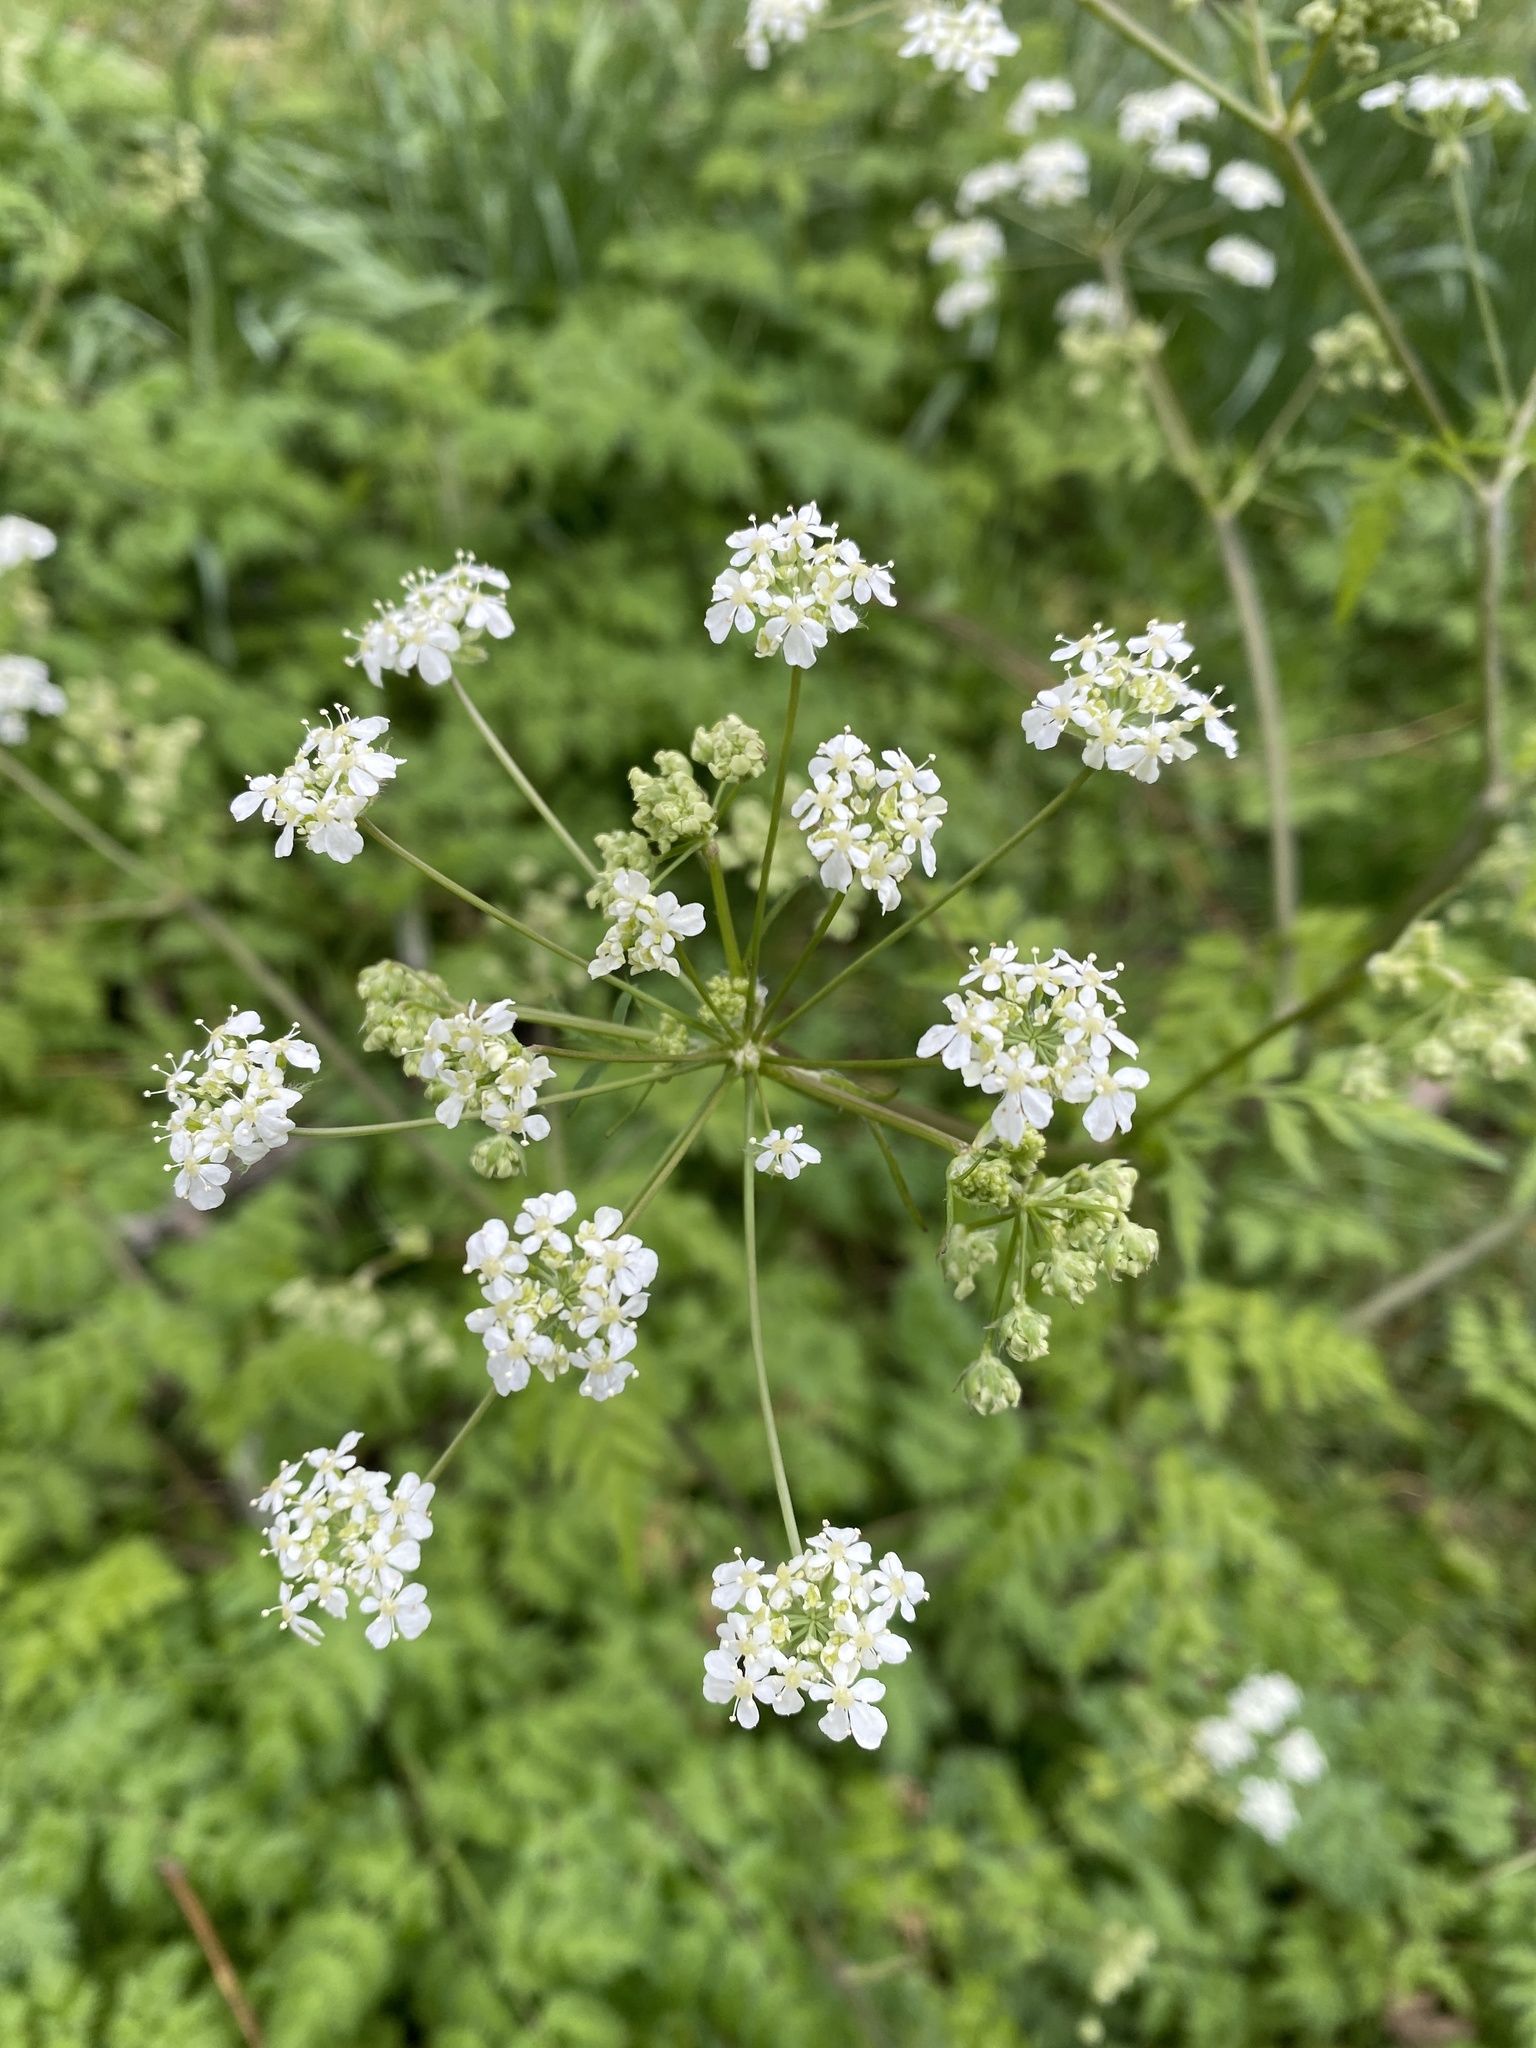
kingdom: Plantae
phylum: Tracheophyta
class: Magnoliopsida
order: Apiales
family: Apiaceae
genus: Anthriscus
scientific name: Anthriscus sylvestris
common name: Cow parsley
